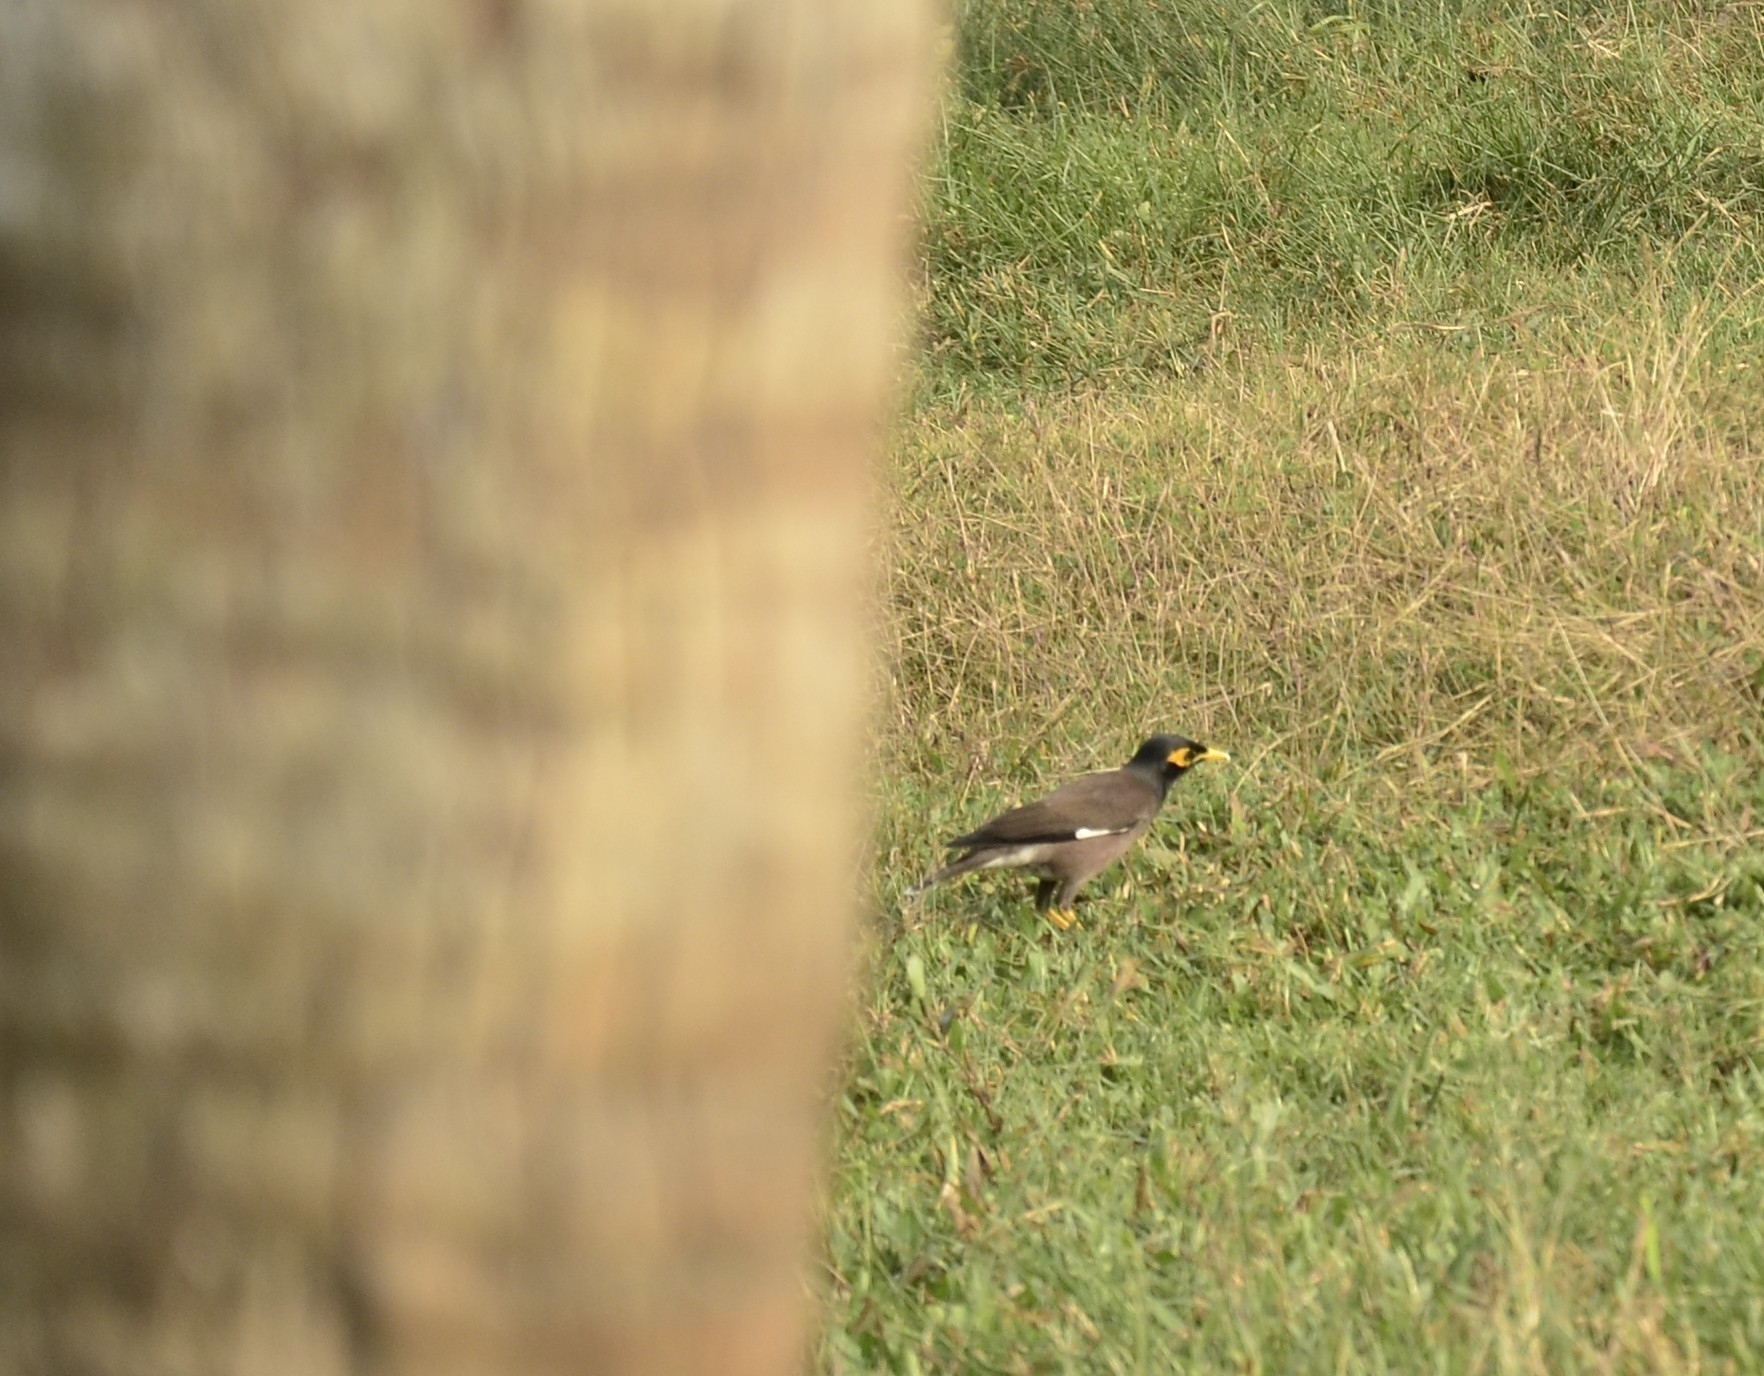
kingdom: Animalia
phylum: Chordata
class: Aves
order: Passeriformes
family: Sturnidae
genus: Acridotheres
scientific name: Acridotheres tristis
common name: Common myna
